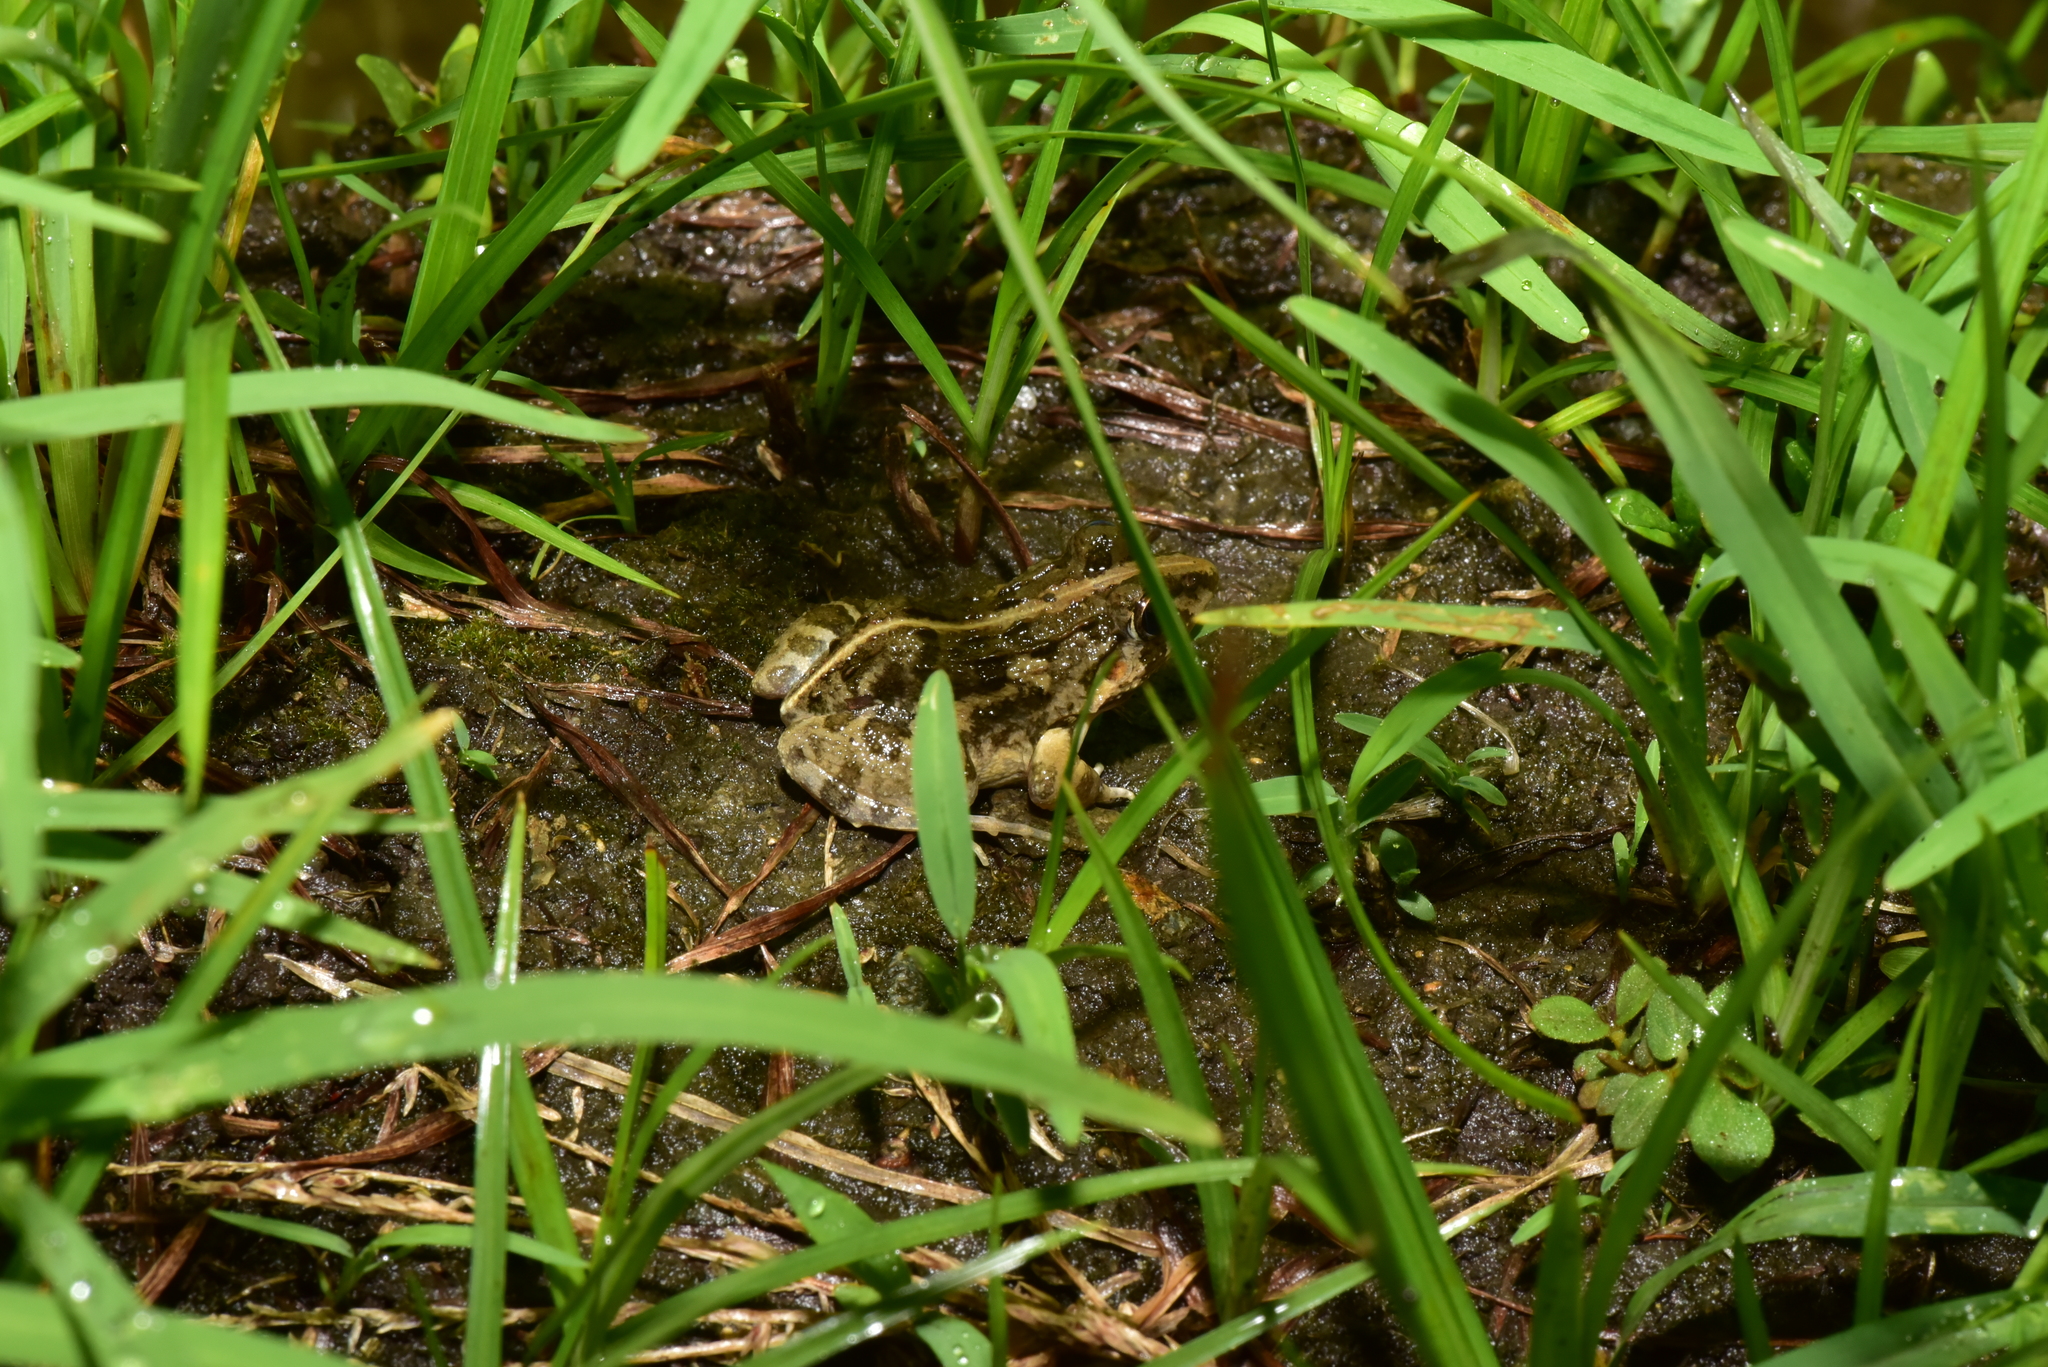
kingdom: Animalia
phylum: Chordata
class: Amphibia
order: Anura
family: Dicroglossidae
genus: Fejervarya
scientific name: Fejervarya limnocharis
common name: Asian grass frog/common pond frog/field frog/grass frog/indian rice frog
